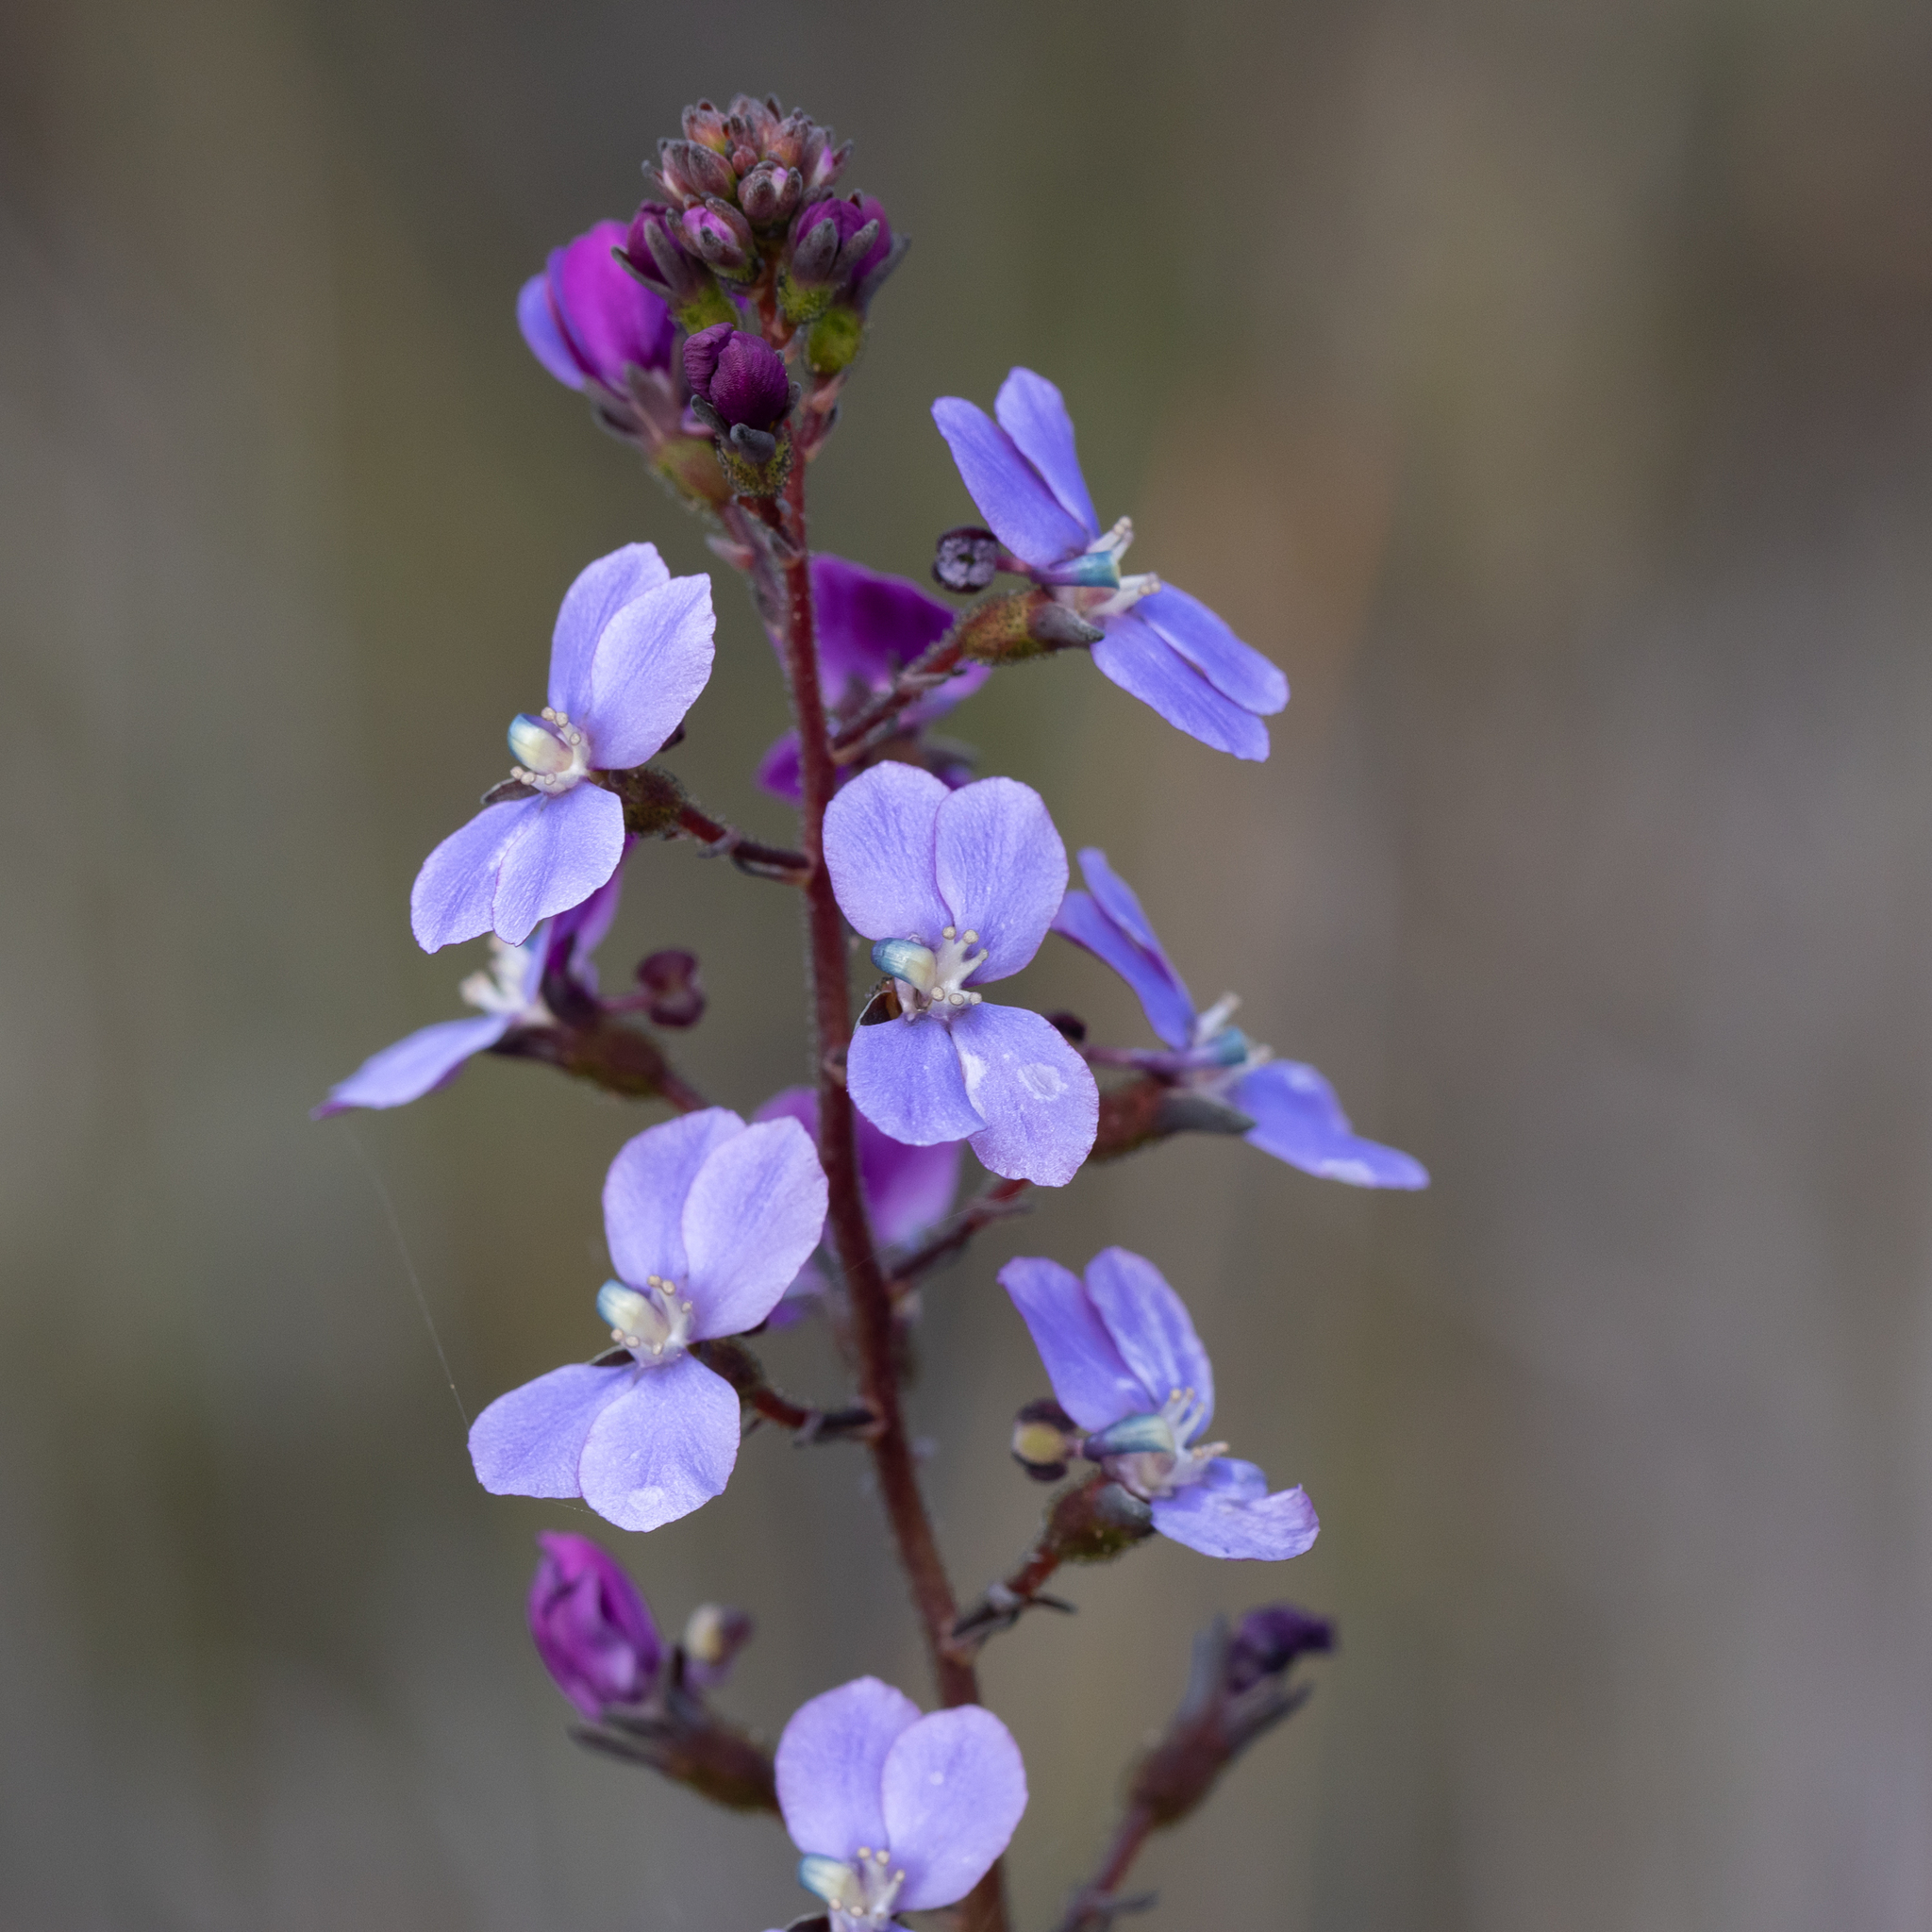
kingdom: Plantae
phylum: Tracheophyta
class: Magnoliopsida
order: Asterales
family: Stylidiaceae
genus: Stylidium
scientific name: Stylidium amoenum
